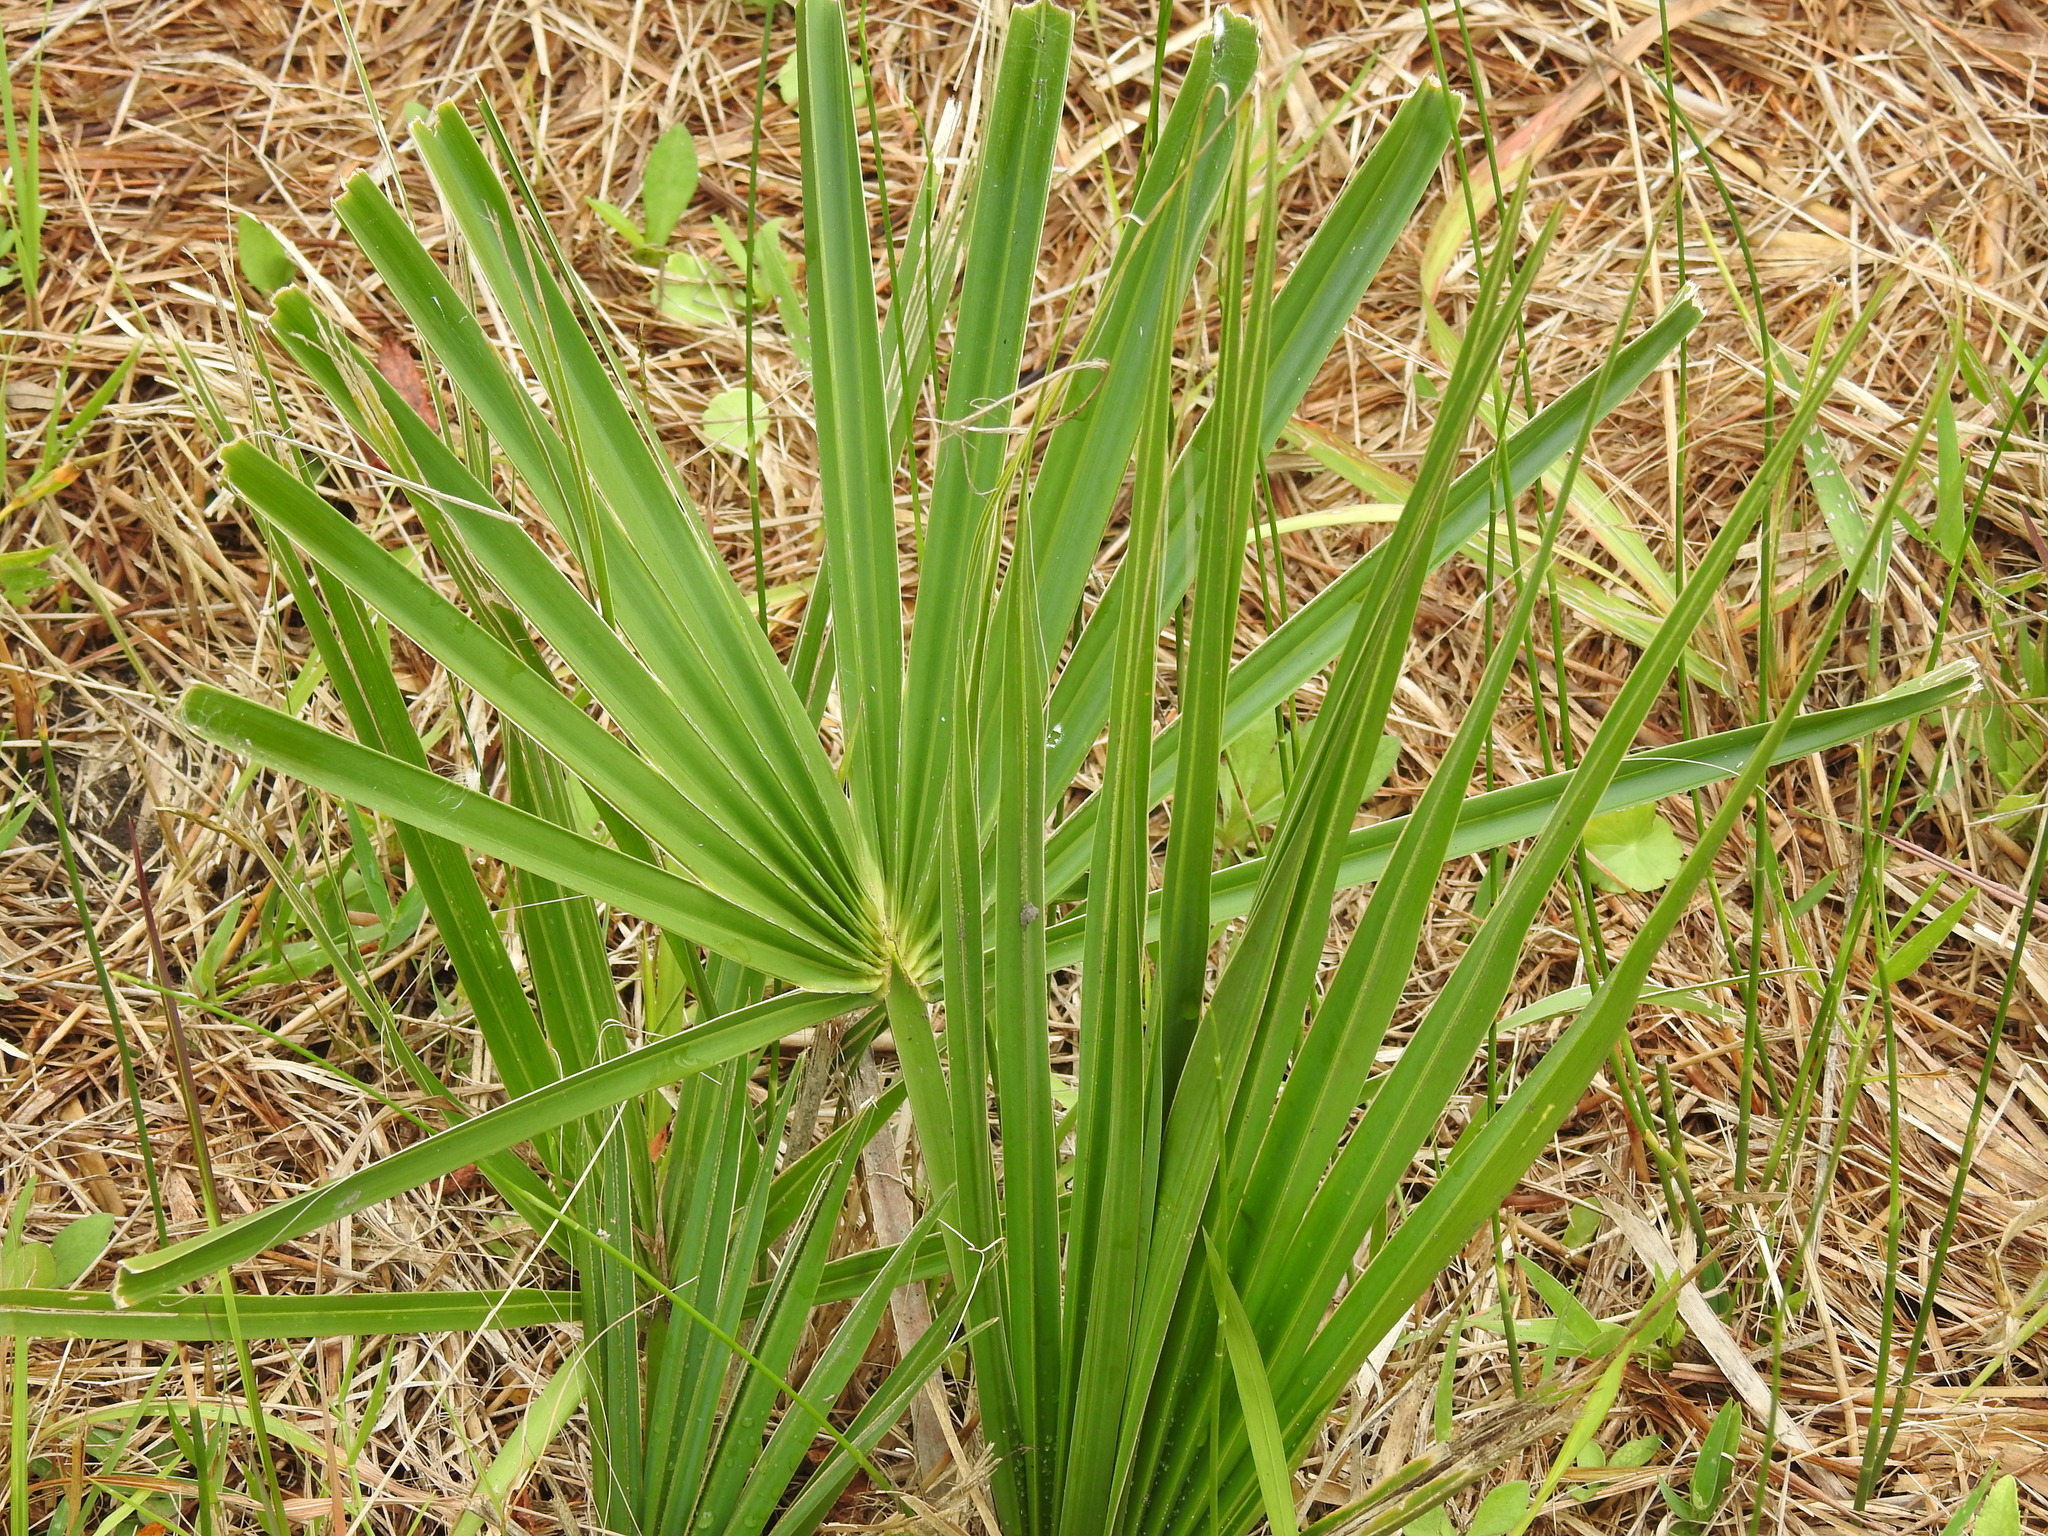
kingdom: Plantae
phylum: Tracheophyta
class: Liliopsida
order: Arecales
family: Arecaceae
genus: Sabal
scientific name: Sabal minor
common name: Dwarf palmetto
